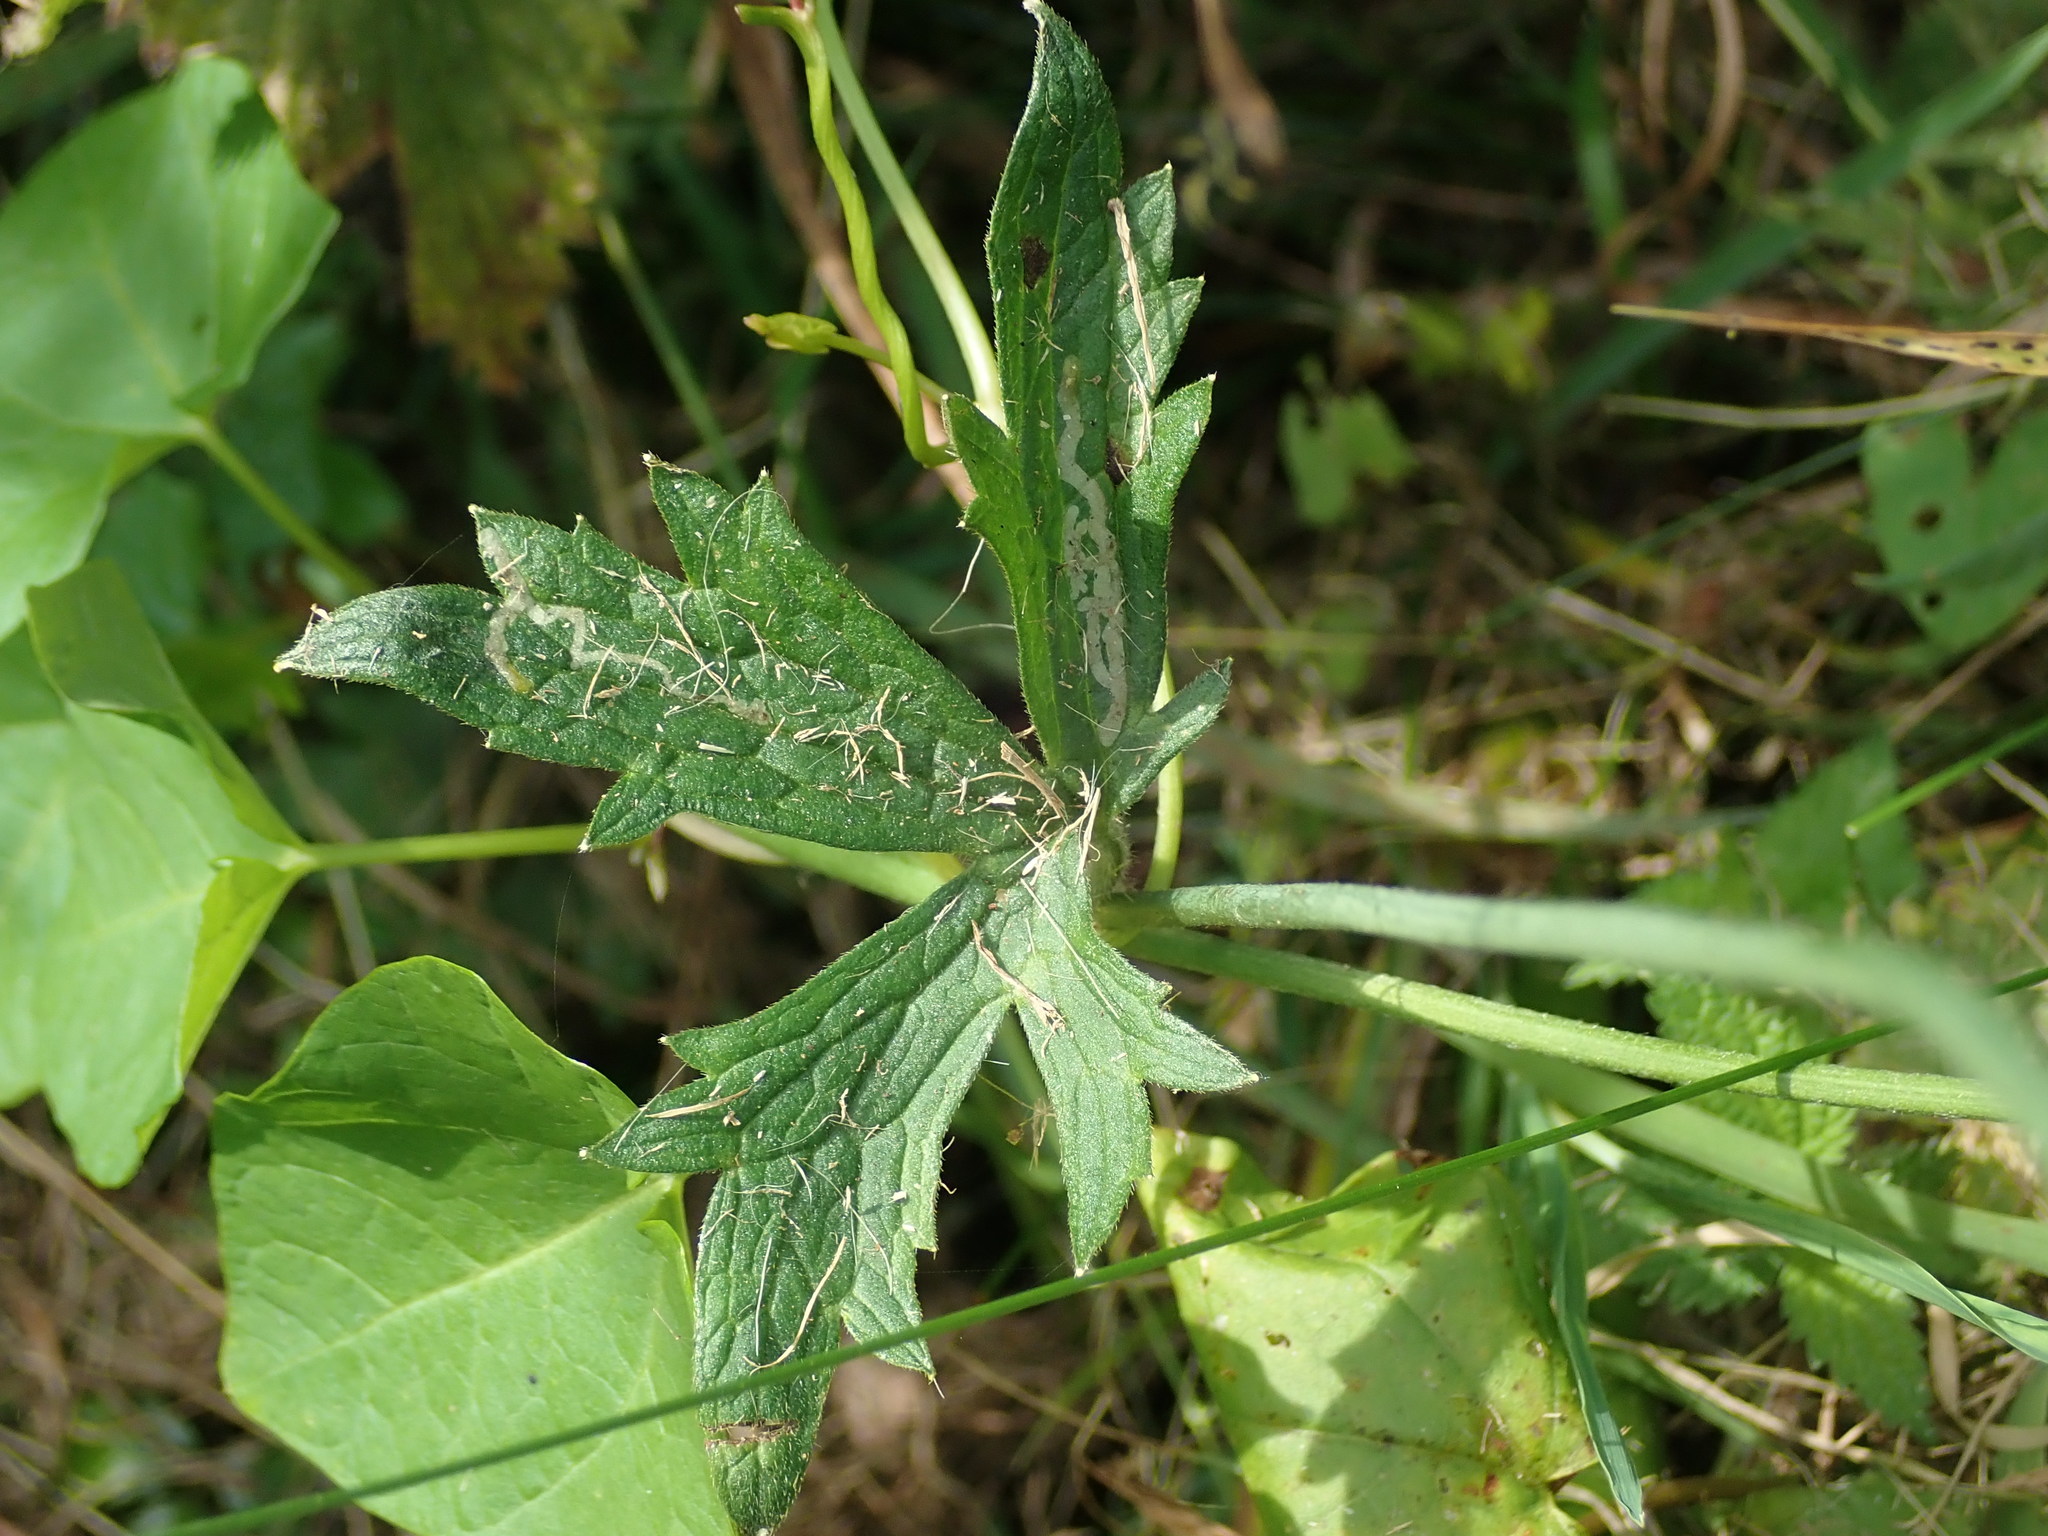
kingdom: Plantae
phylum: Tracheophyta
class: Magnoliopsida
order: Ranunculales
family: Ranunculaceae
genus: Ranunculus
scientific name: Ranunculus acris
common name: Meadow buttercup
